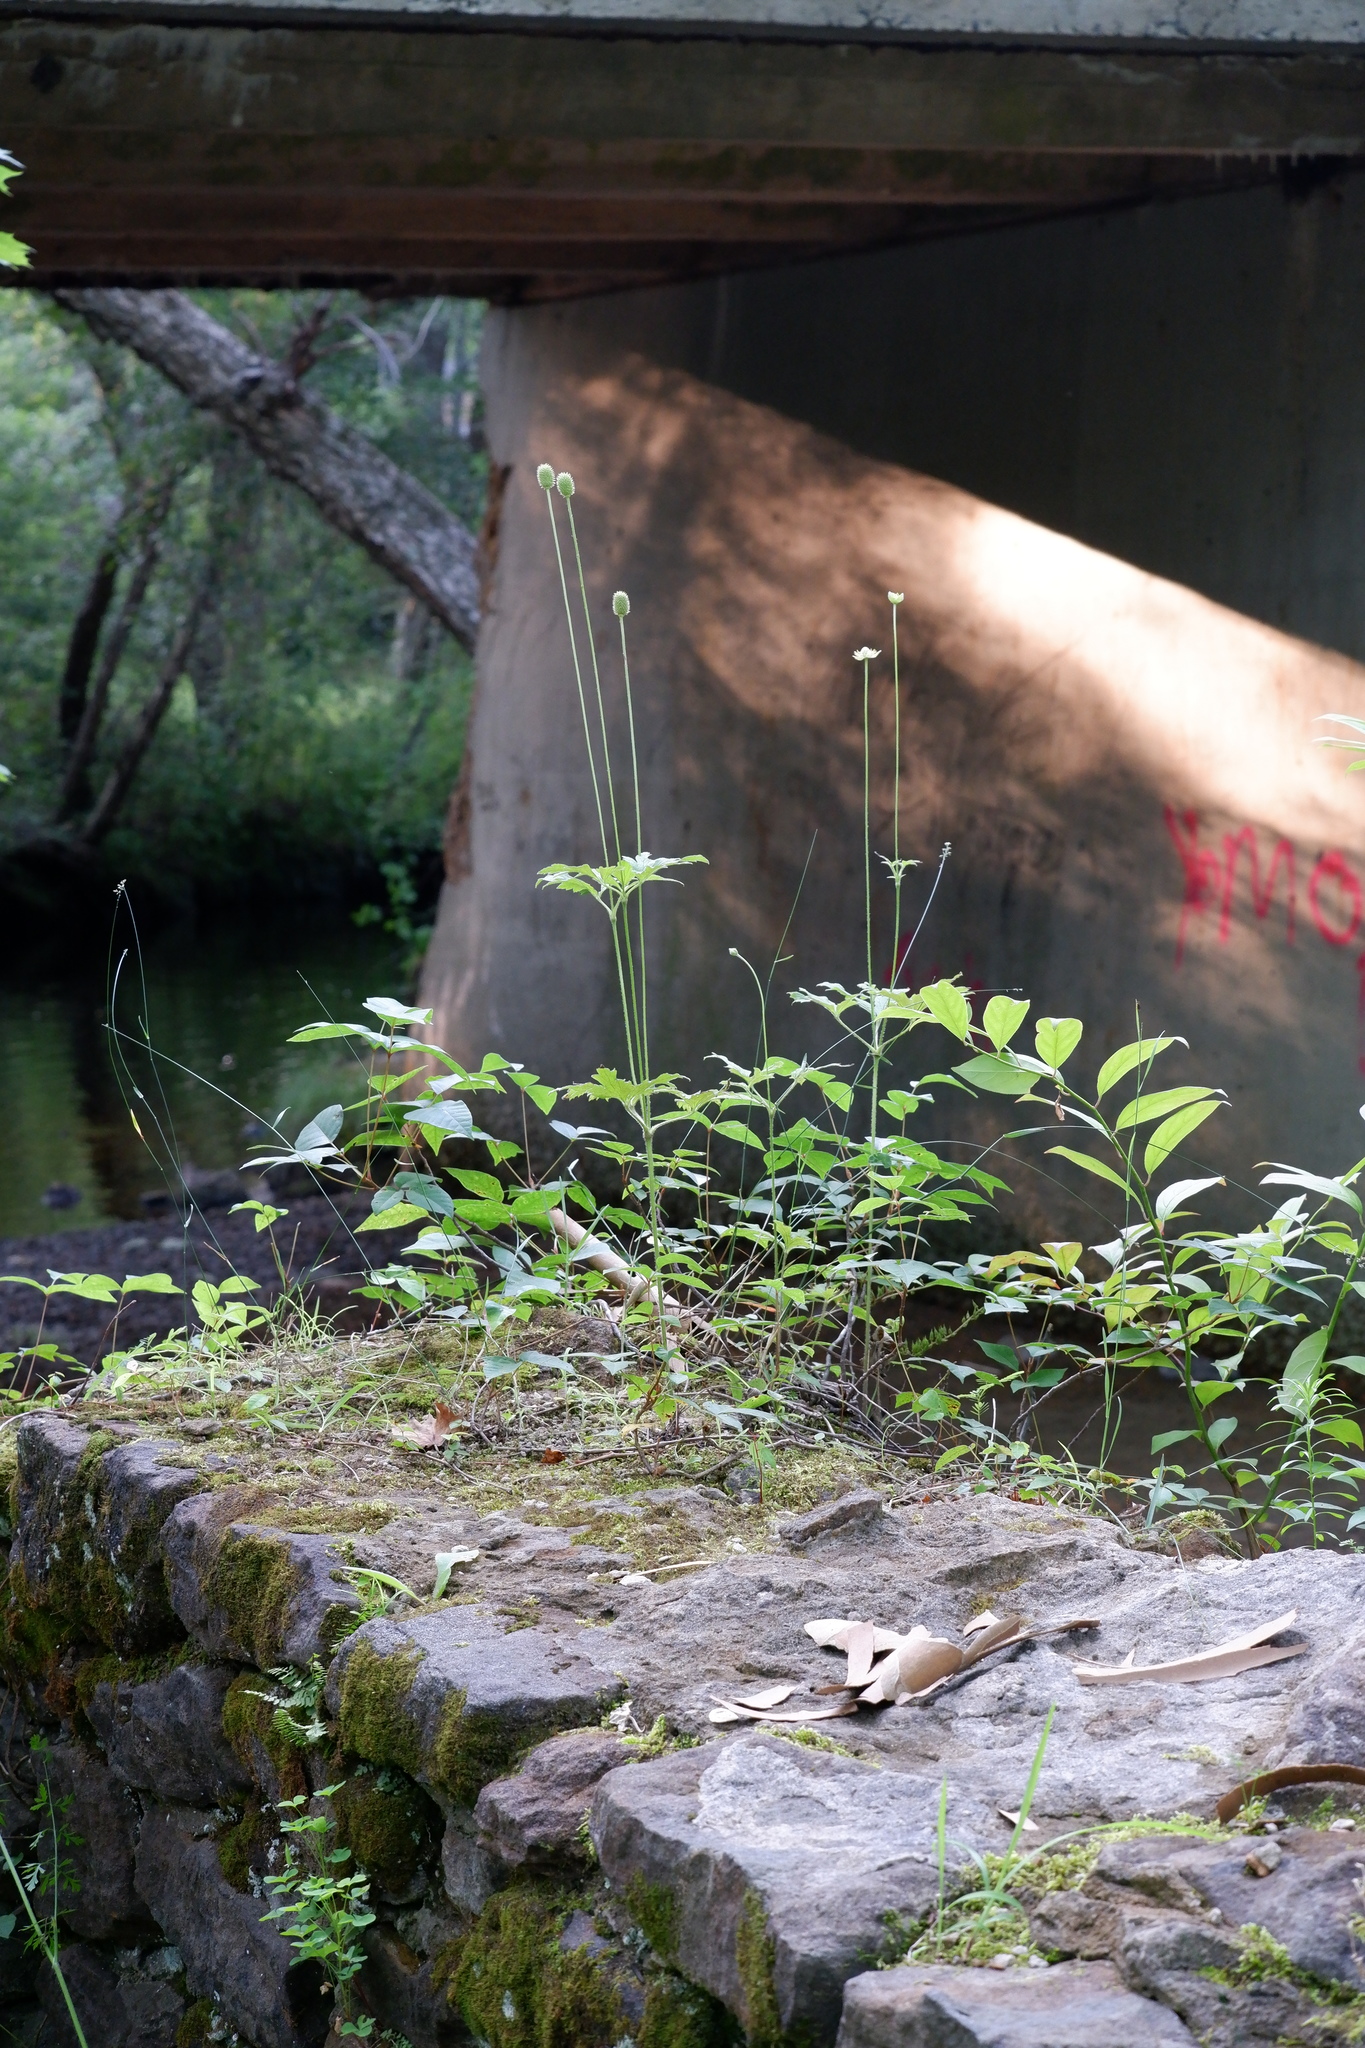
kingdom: Plantae
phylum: Tracheophyta
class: Magnoliopsida
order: Ranunculales
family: Ranunculaceae
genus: Anemone
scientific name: Anemone virginiana
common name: Tall anemone
